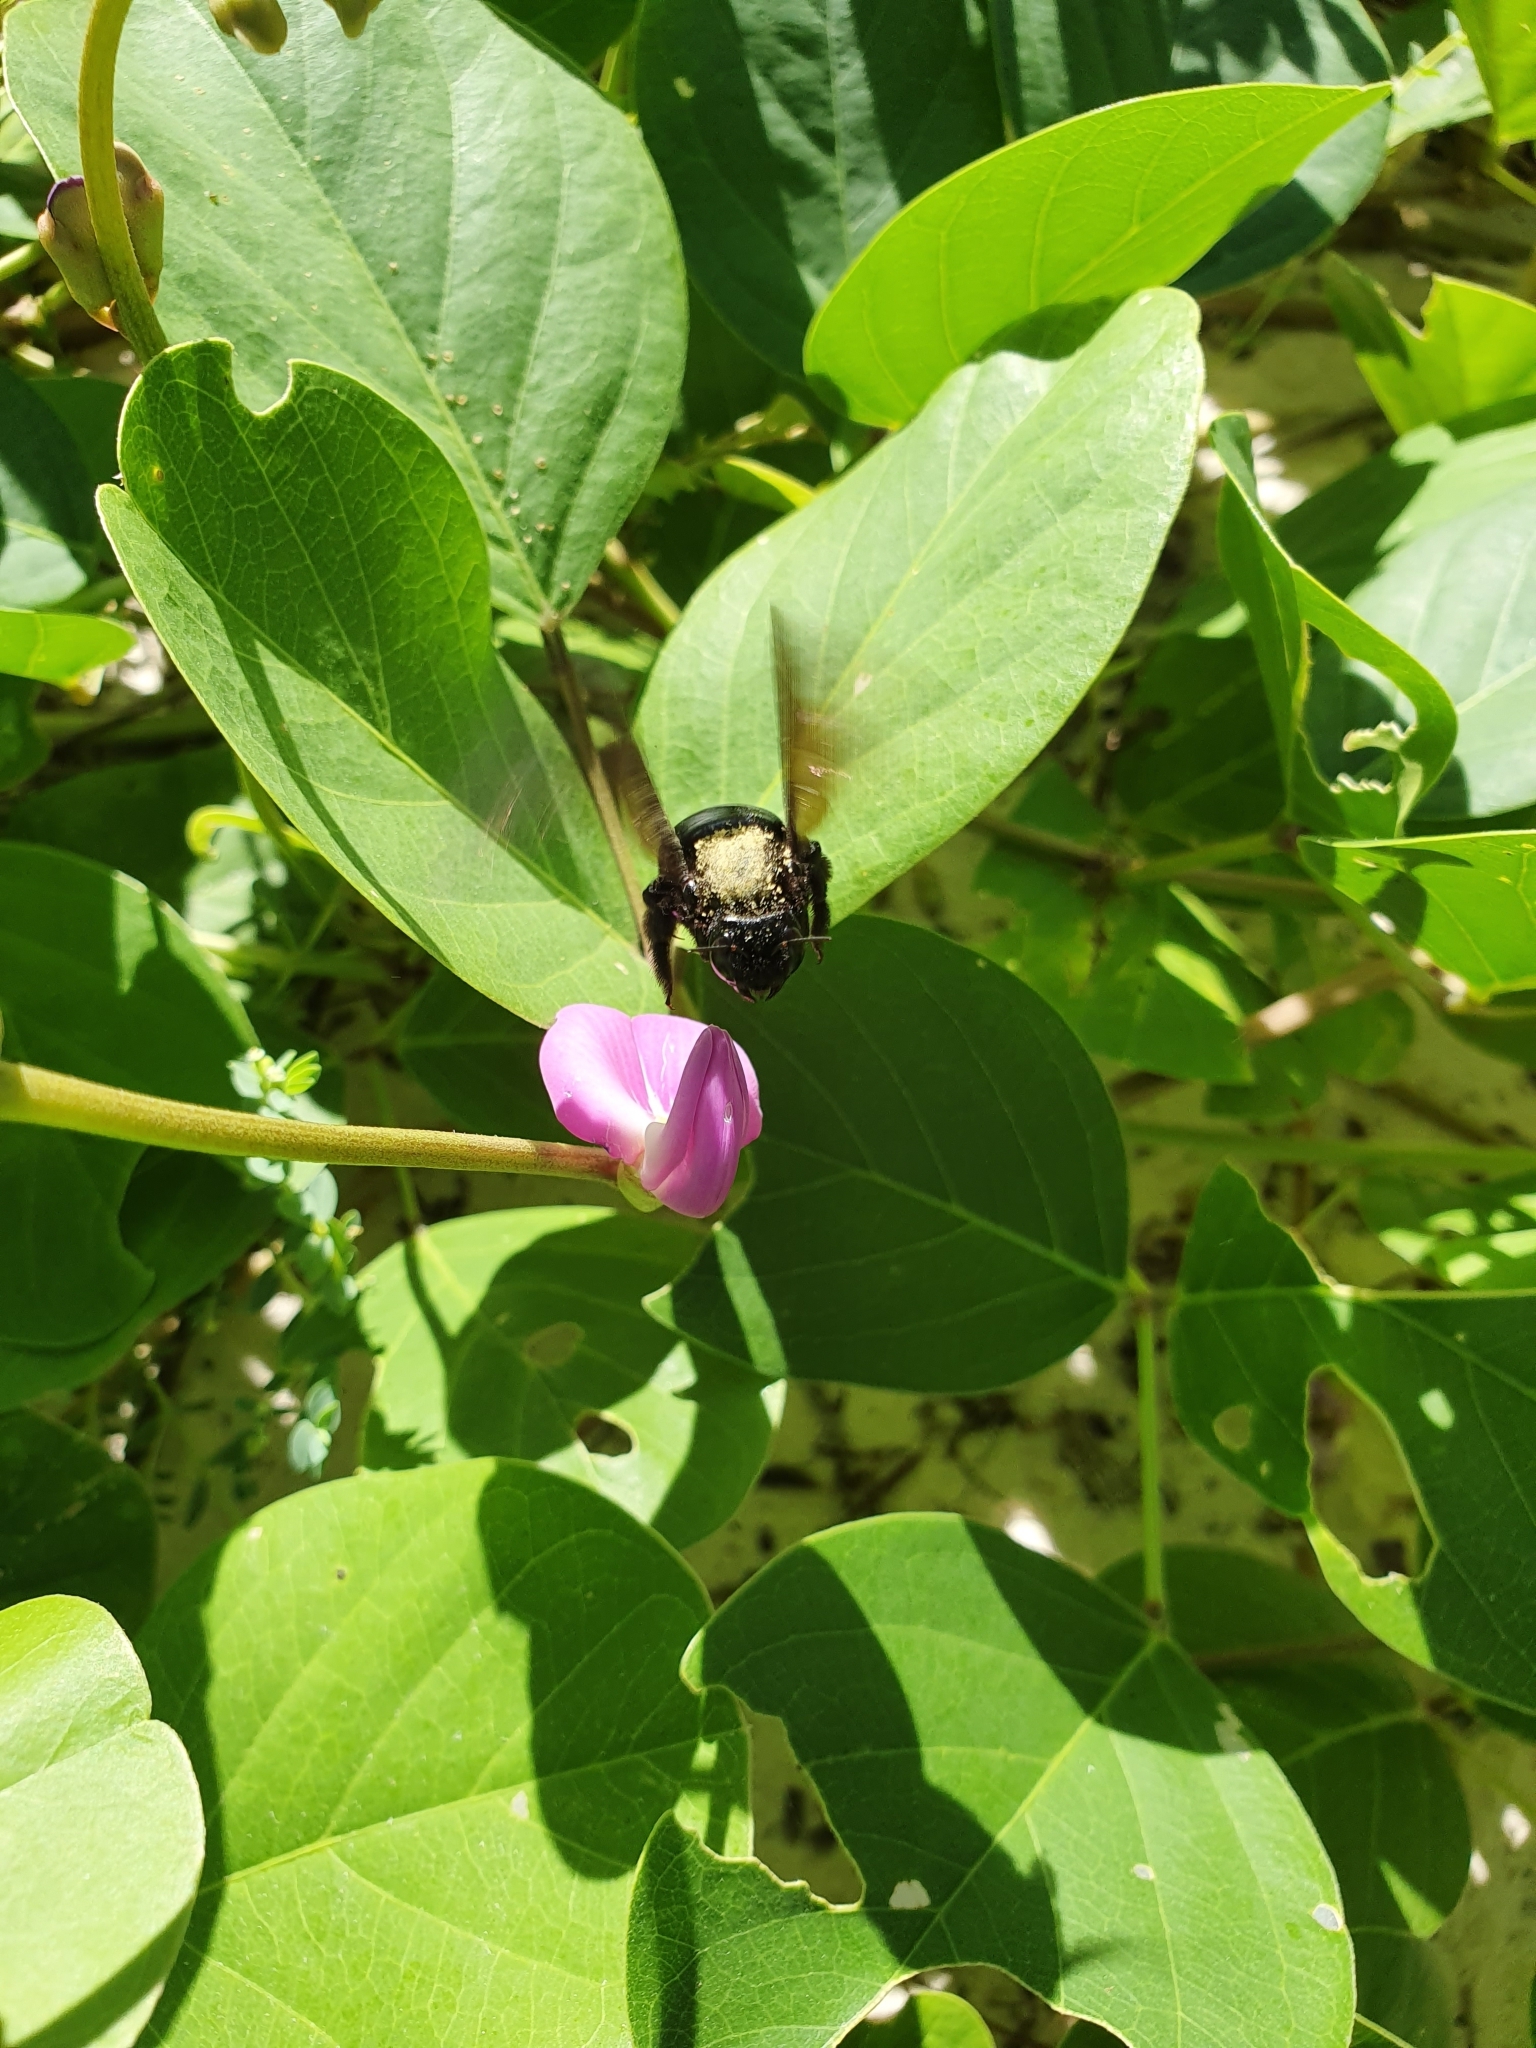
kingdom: Animalia
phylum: Arthropoda
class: Insecta
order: Hymenoptera
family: Apidae
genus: Xylocopa
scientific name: Xylocopa mordax
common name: Antillean carpenter bee
